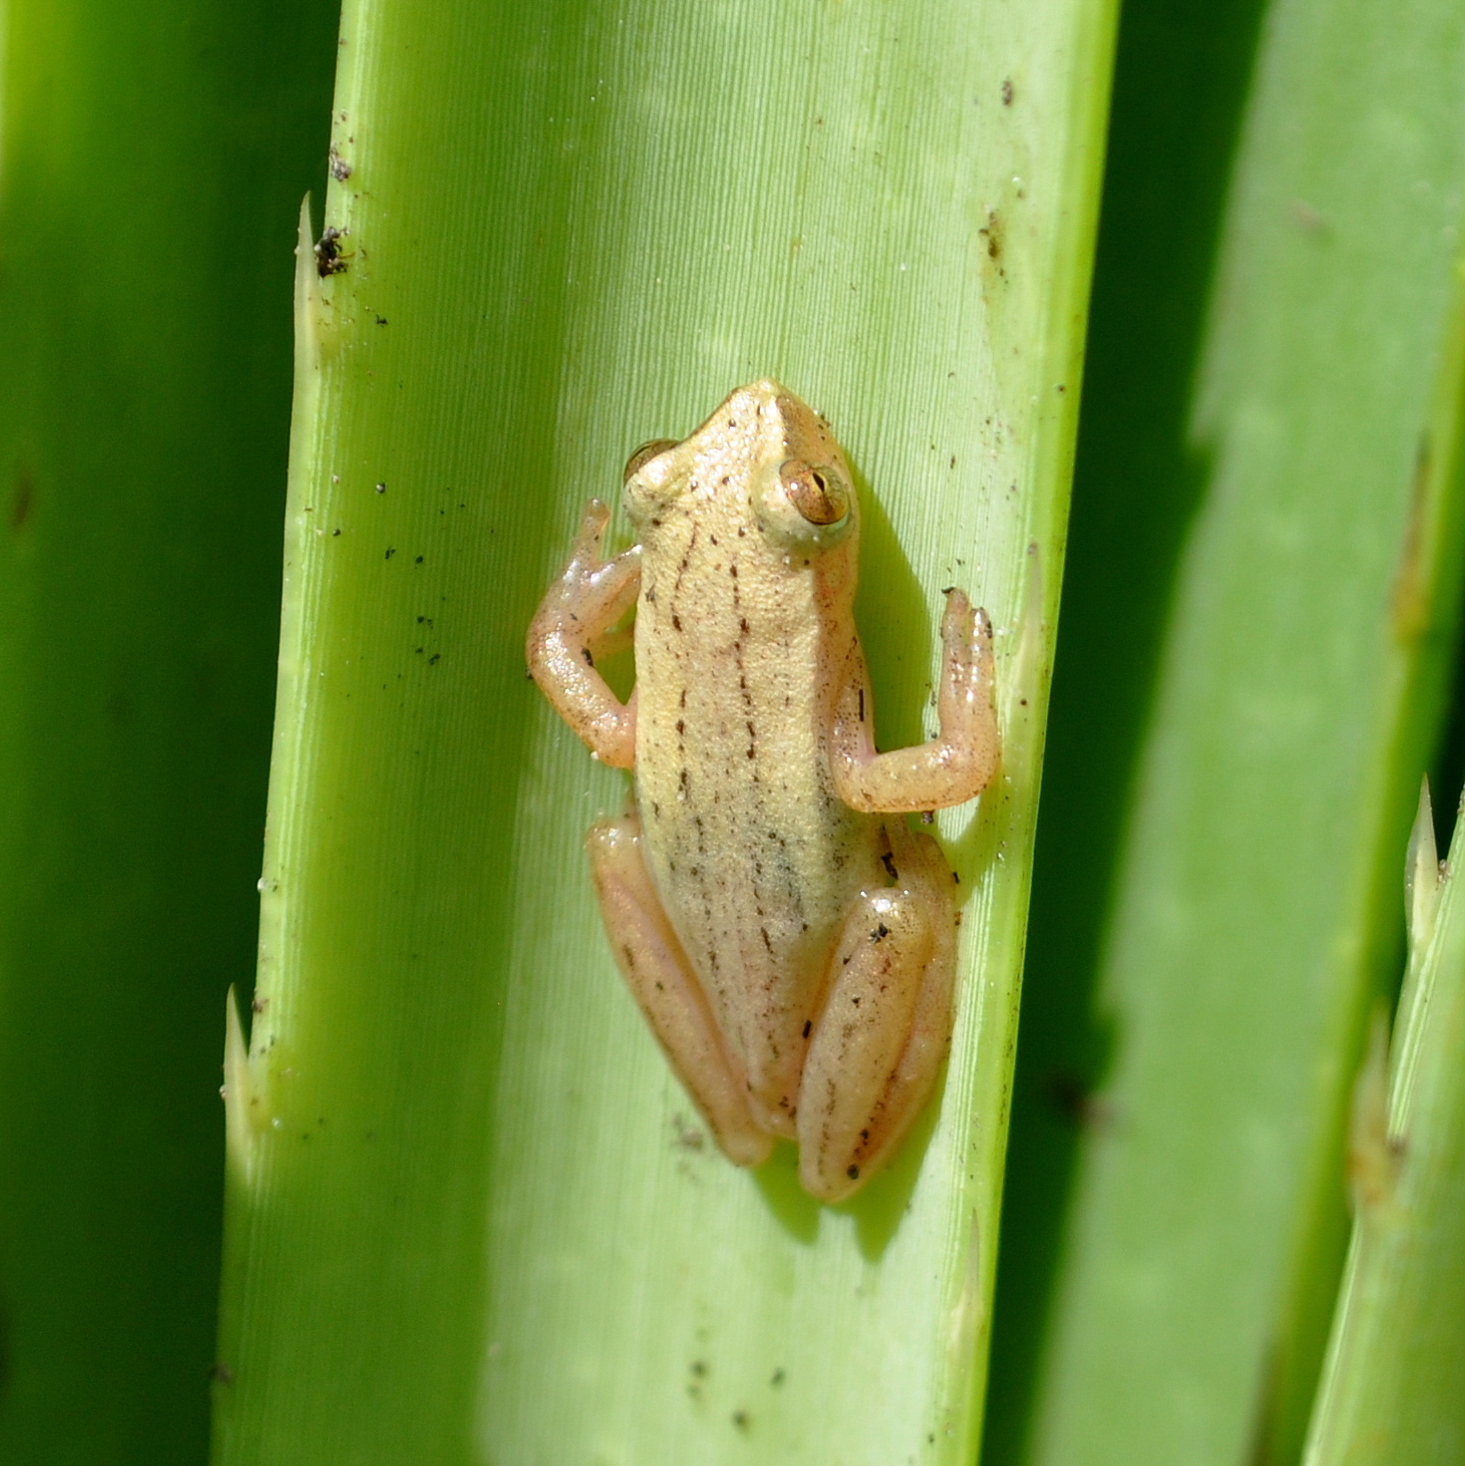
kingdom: Animalia
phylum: Chordata
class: Amphibia
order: Anura
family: Hylidae
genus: Dendropsophus
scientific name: Dendropsophus sanborni
